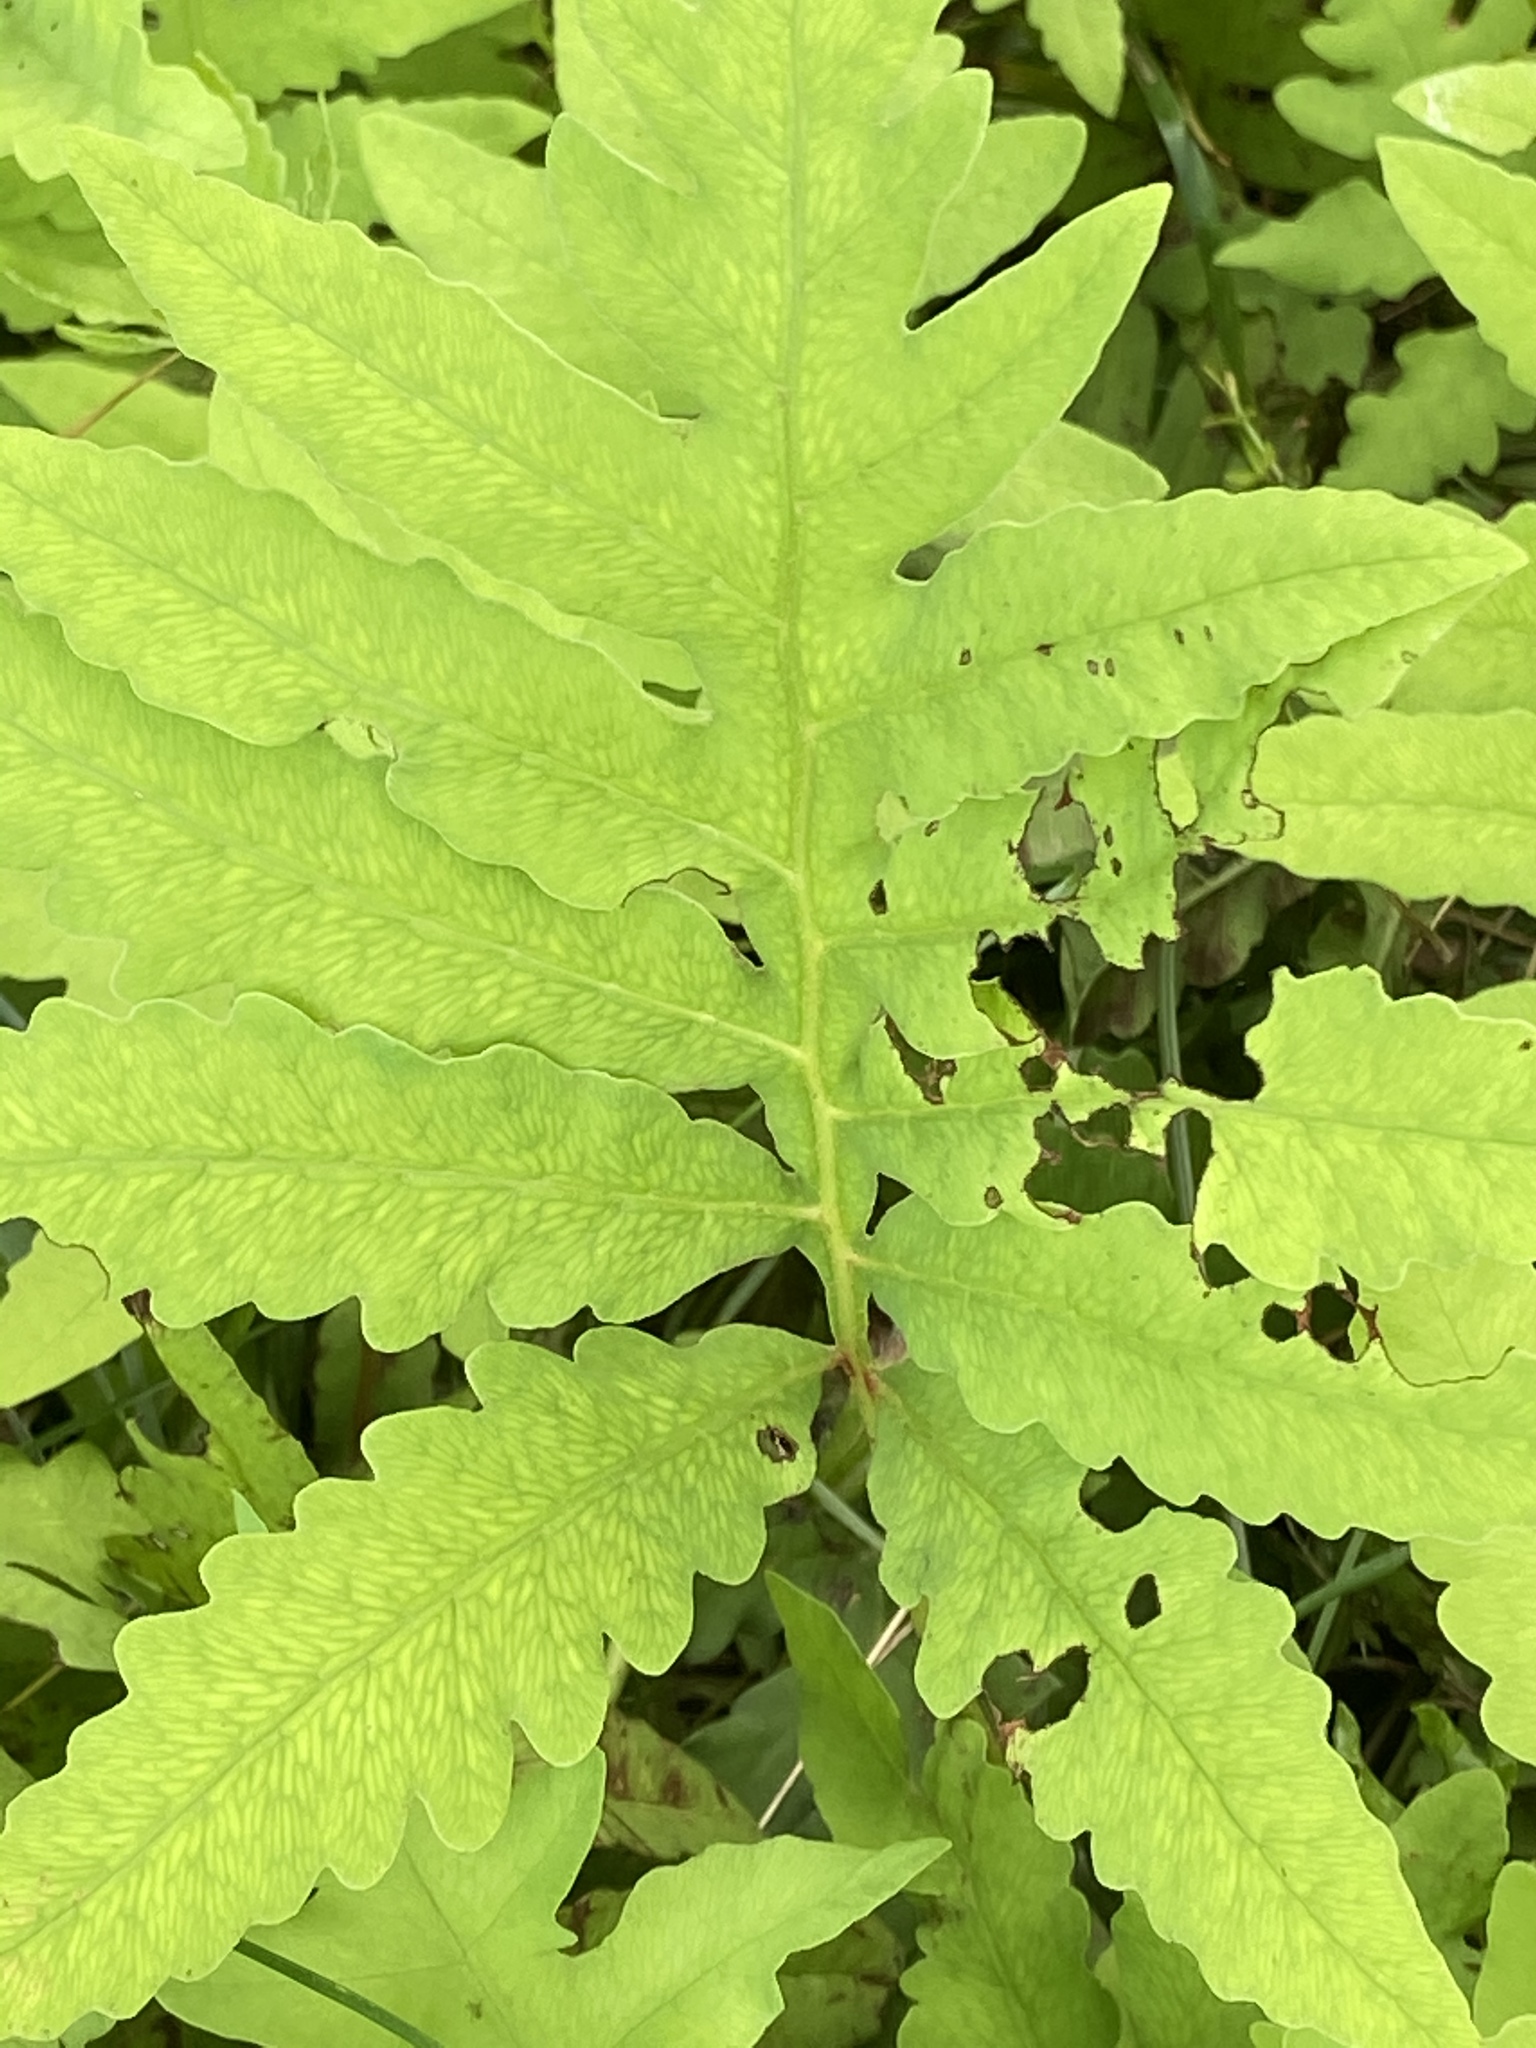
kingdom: Plantae
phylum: Tracheophyta
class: Polypodiopsida
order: Polypodiales
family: Onocleaceae
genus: Onoclea
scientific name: Onoclea sensibilis
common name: Sensitive fern
